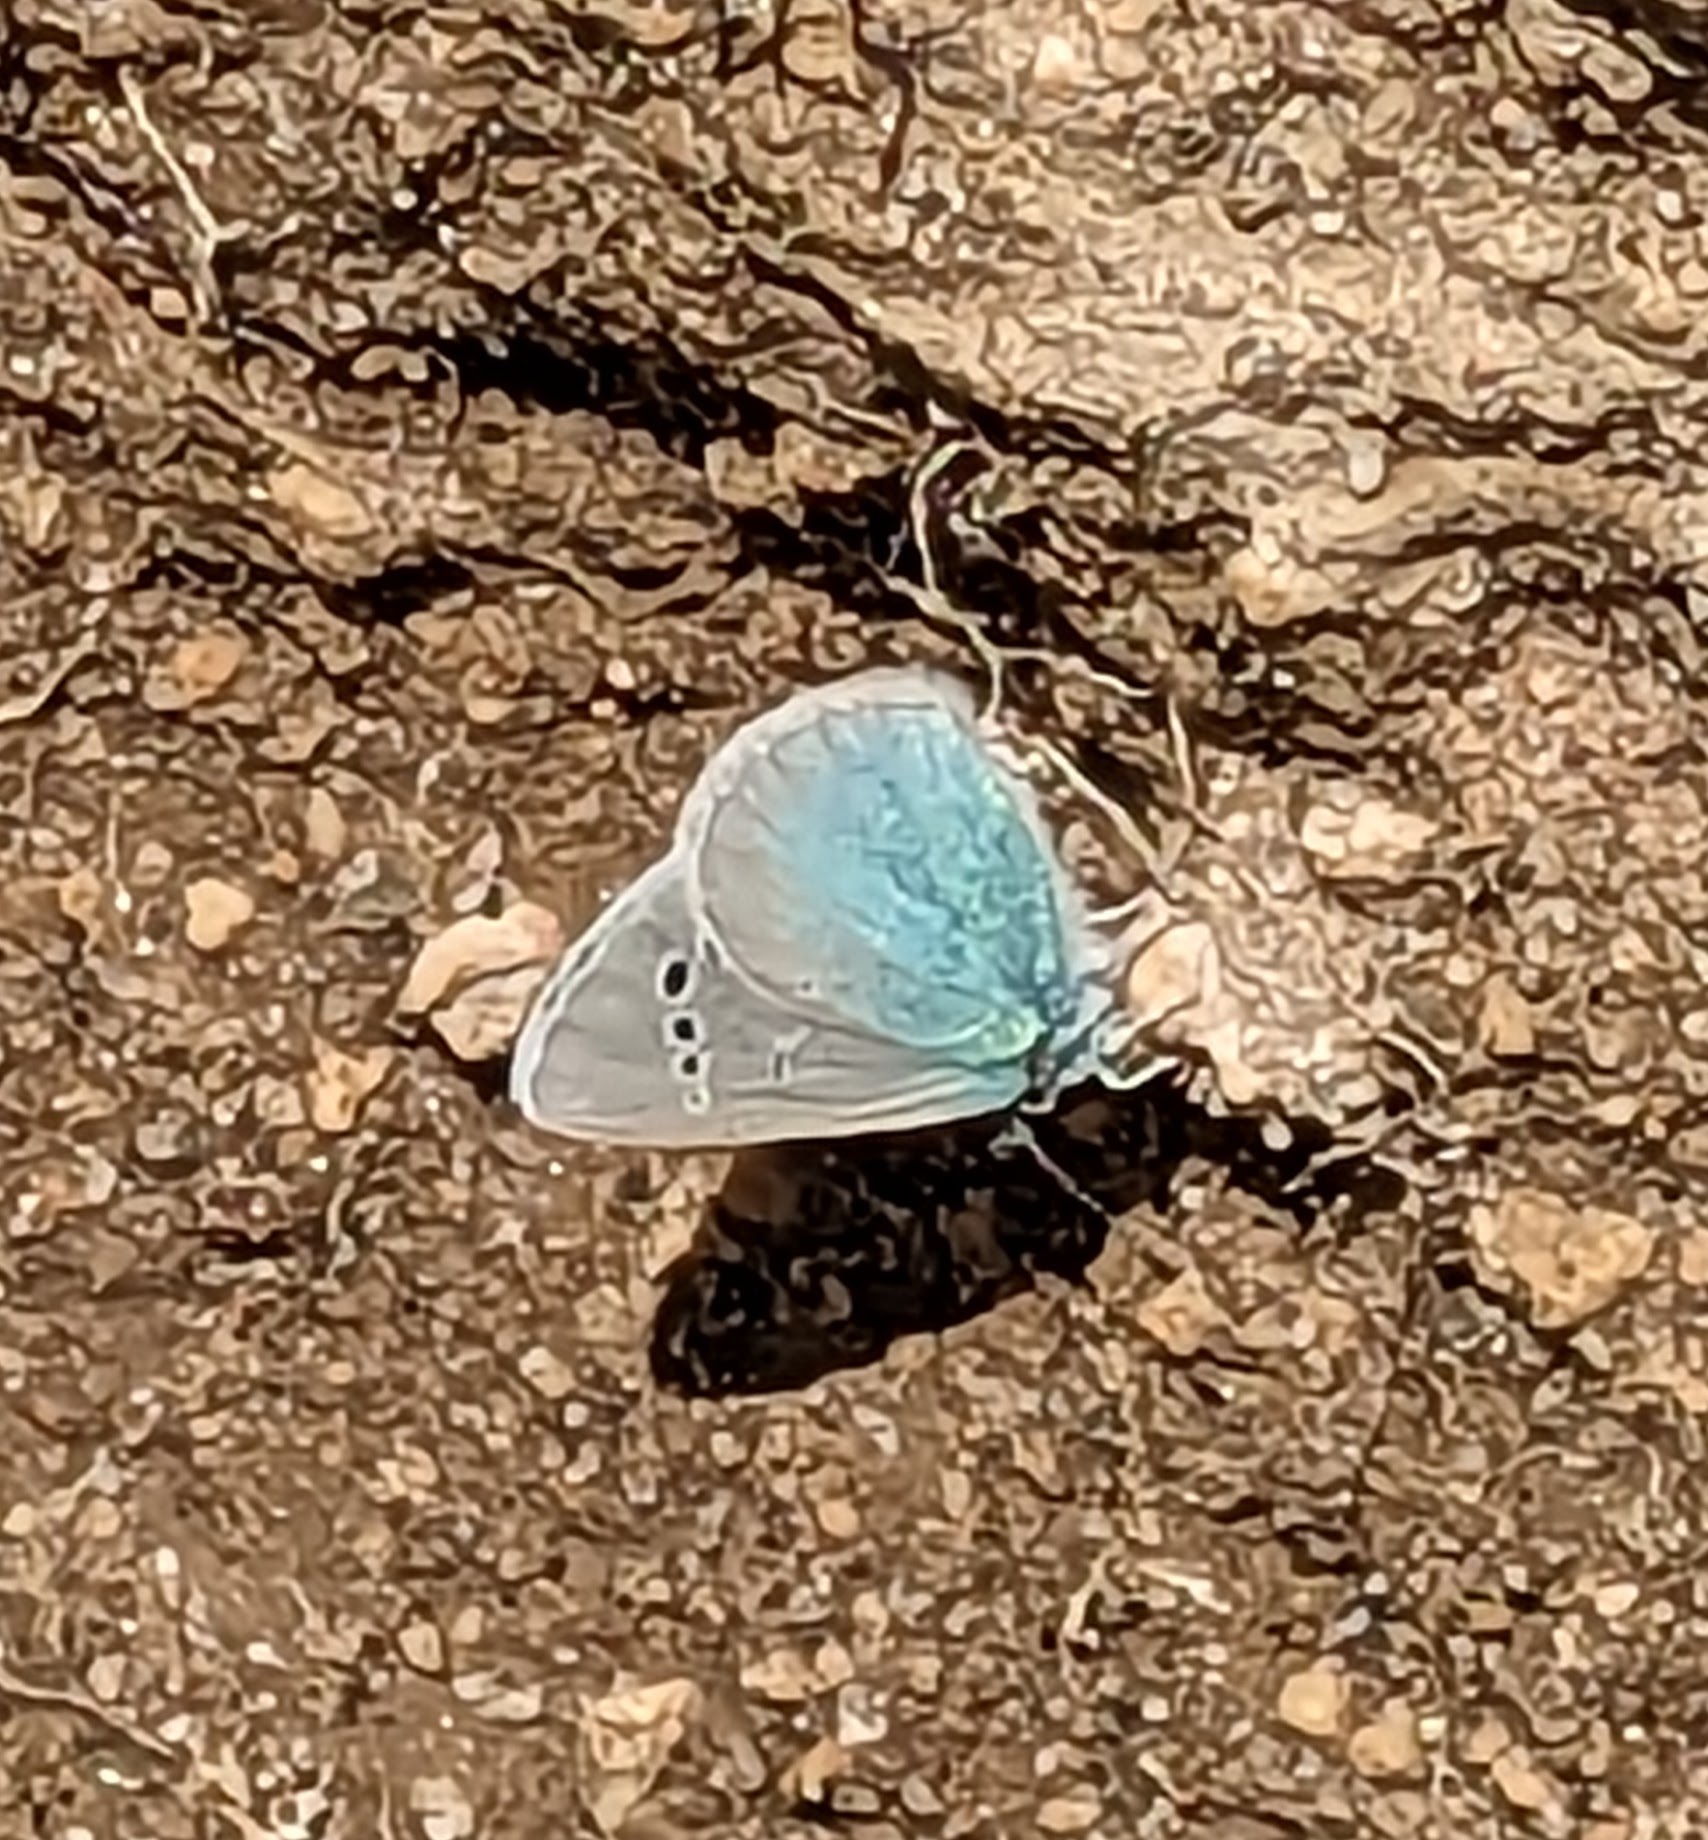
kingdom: Animalia
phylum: Arthropoda
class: Insecta
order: Lepidoptera
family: Lycaenidae
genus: Glaucopsyche
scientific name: Glaucopsyche alexis
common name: Green-underside blue
